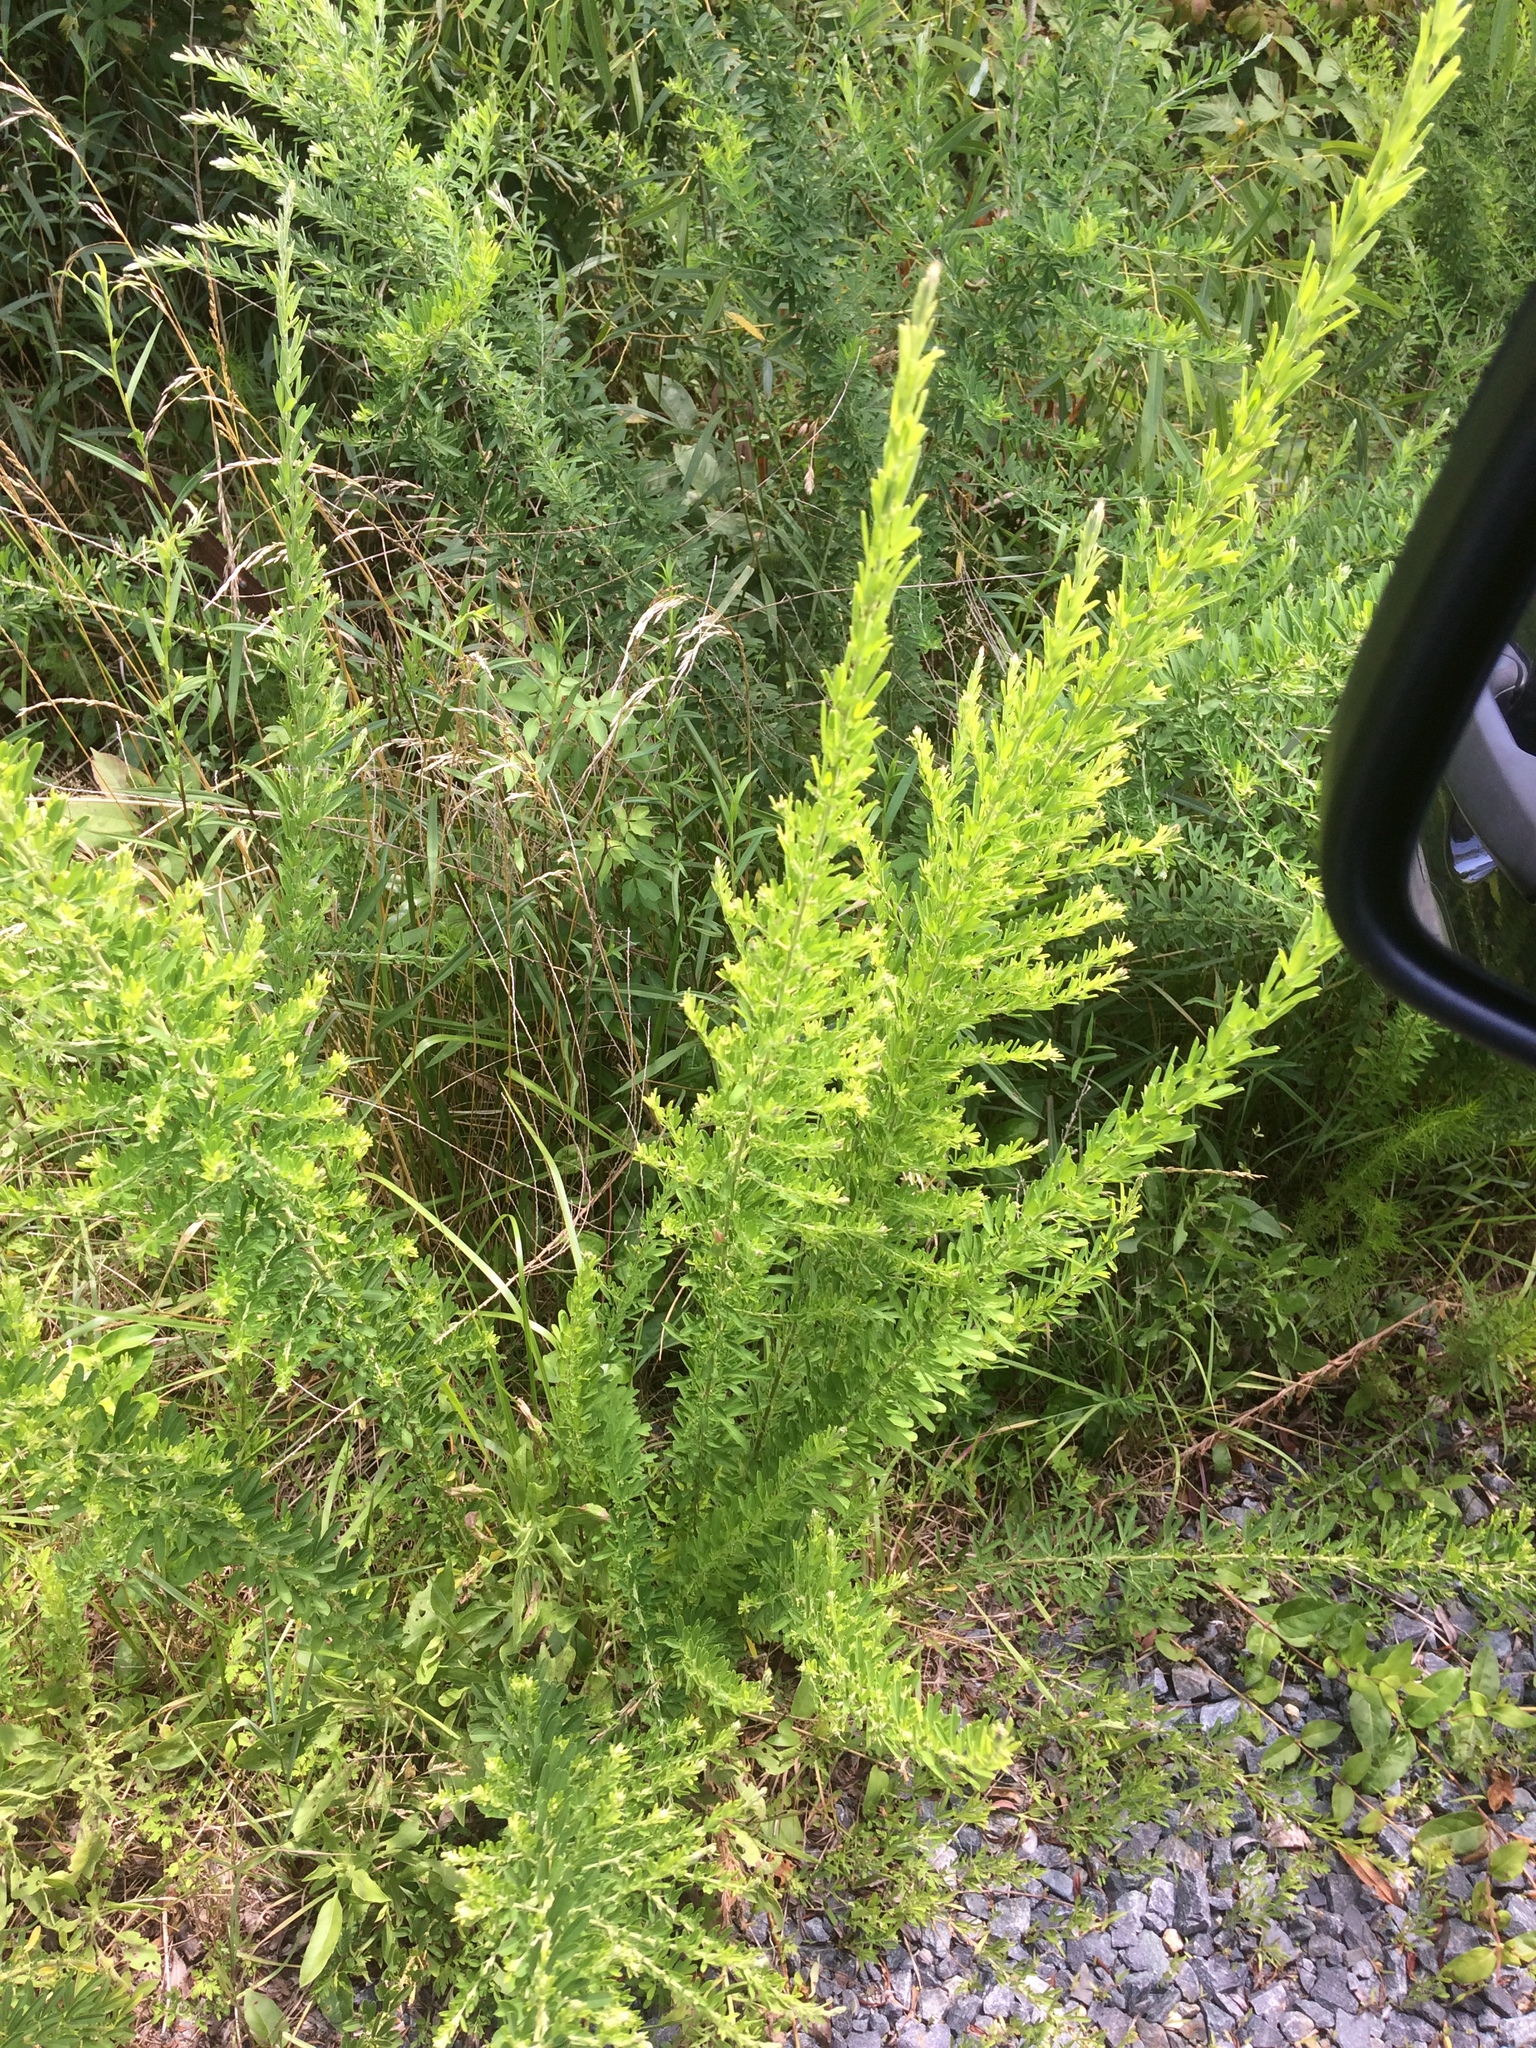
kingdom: Plantae
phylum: Tracheophyta
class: Magnoliopsida
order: Fabales
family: Fabaceae
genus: Lespedeza
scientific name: Lespedeza cuneata
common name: Chinese bush-clover
